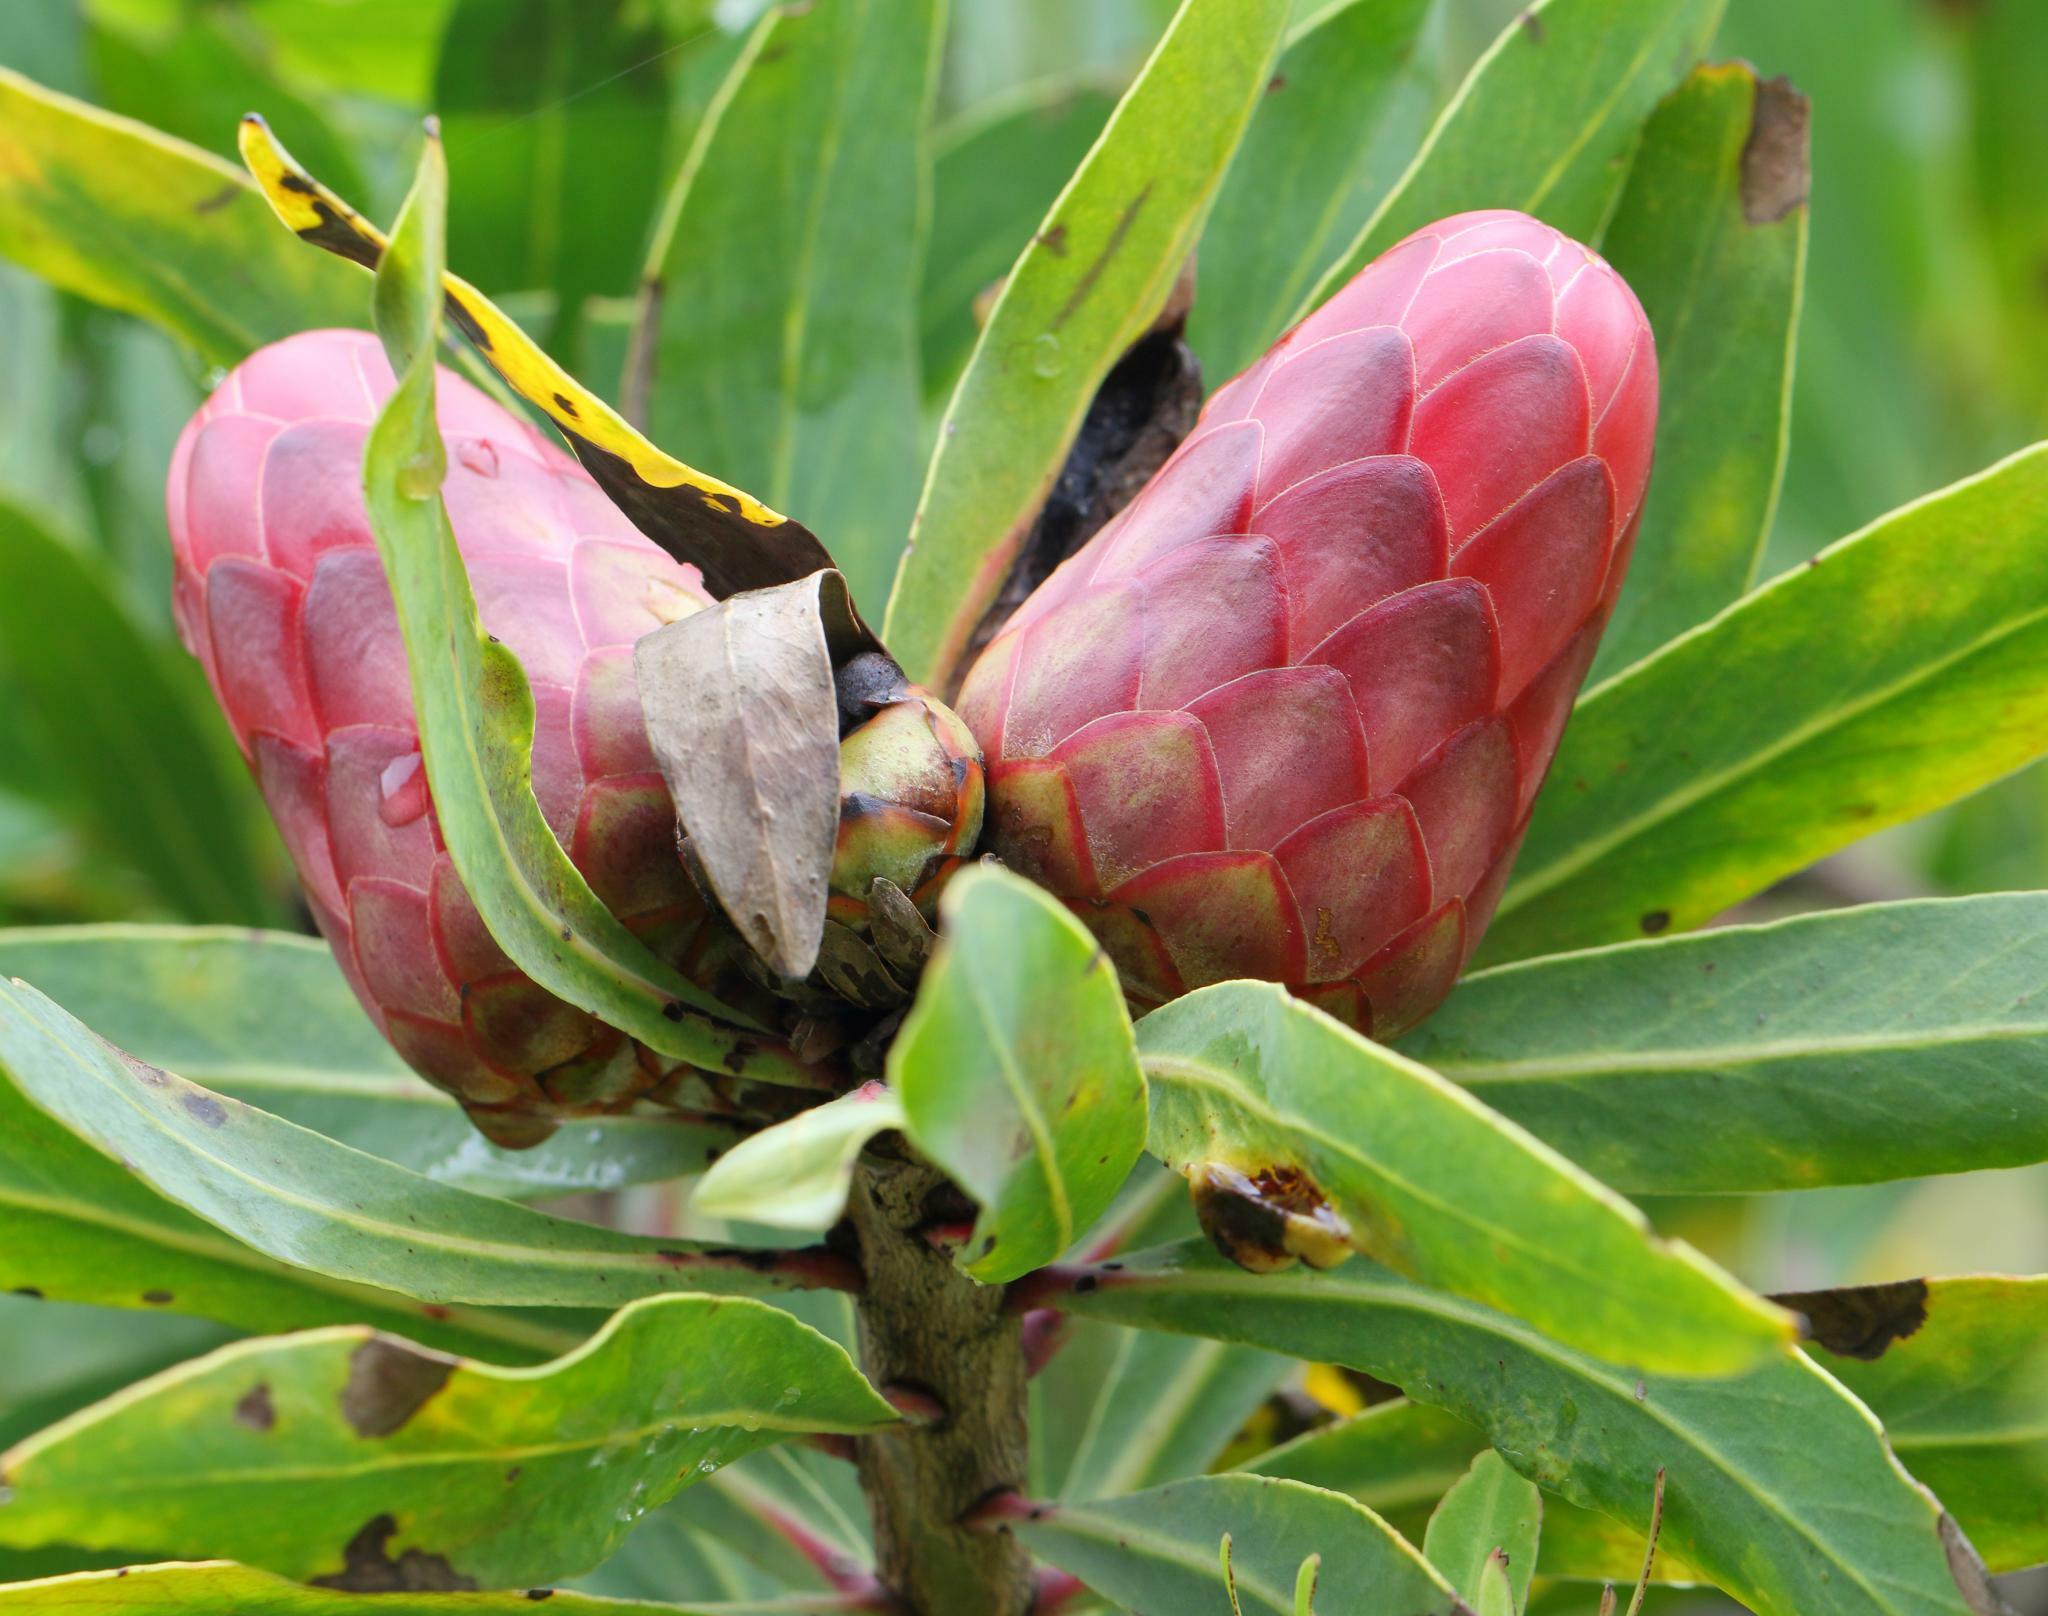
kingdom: Plantae
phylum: Tracheophyta
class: Magnoliopsida
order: Proteales
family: Proteaceae
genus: Protea
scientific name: Protea caffra
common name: Common sugarbush
